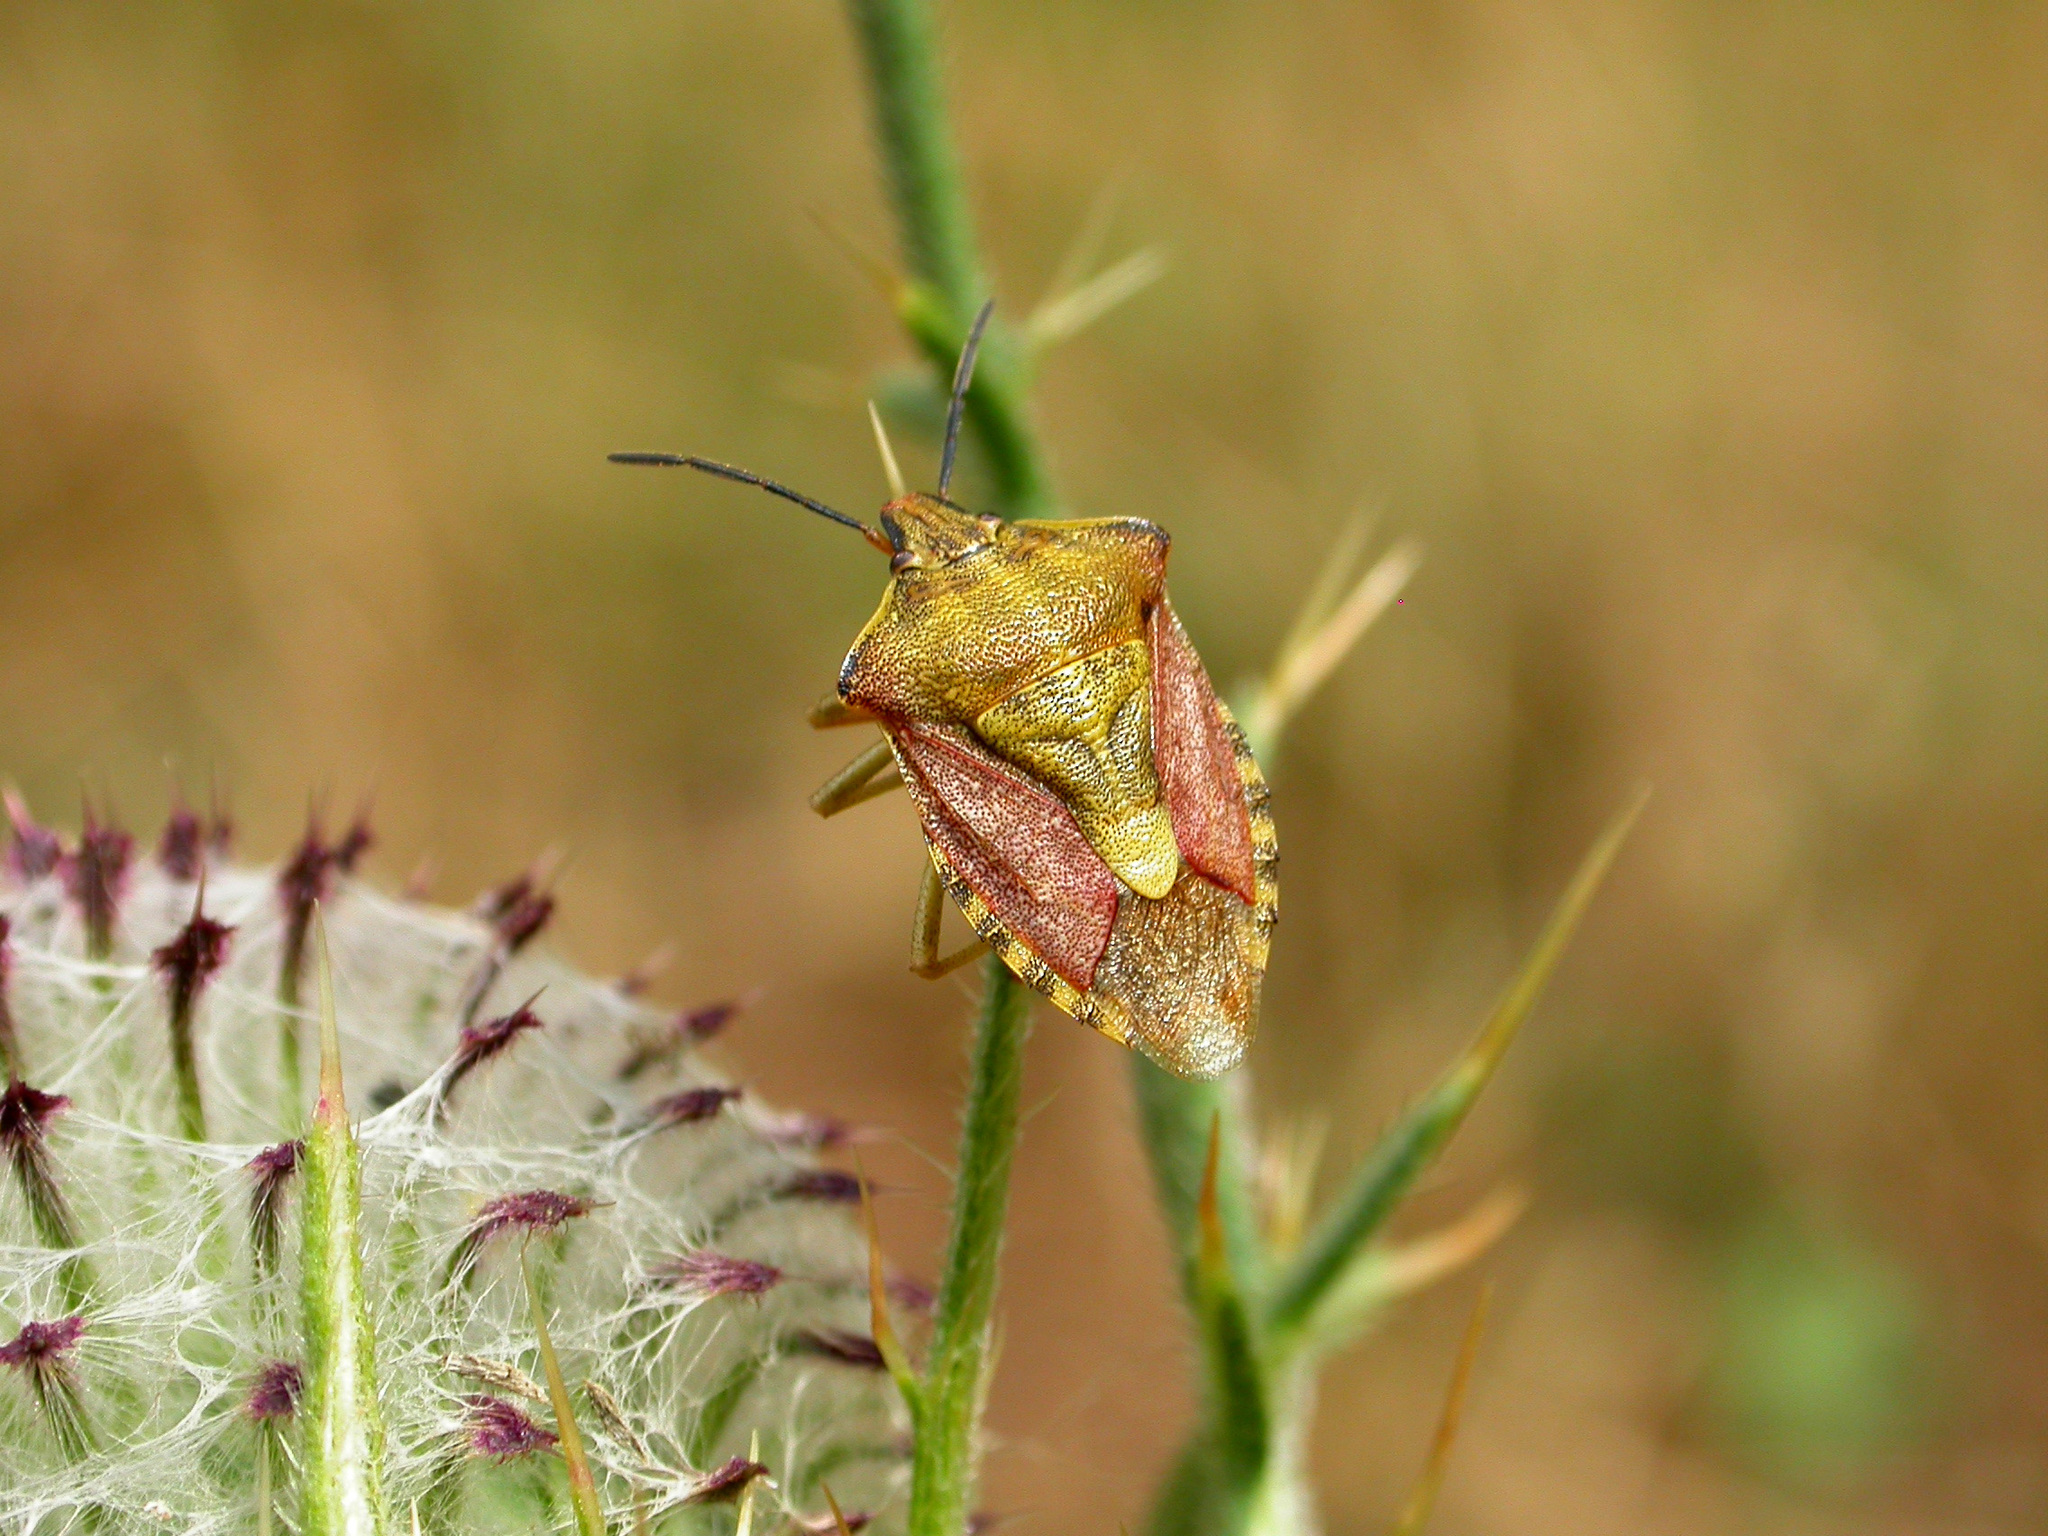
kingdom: Animalia
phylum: Arthropoda
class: Insecta
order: Hemiptera
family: Pentatomidae
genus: Carpocoris
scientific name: Carpocoris purpureipennis
